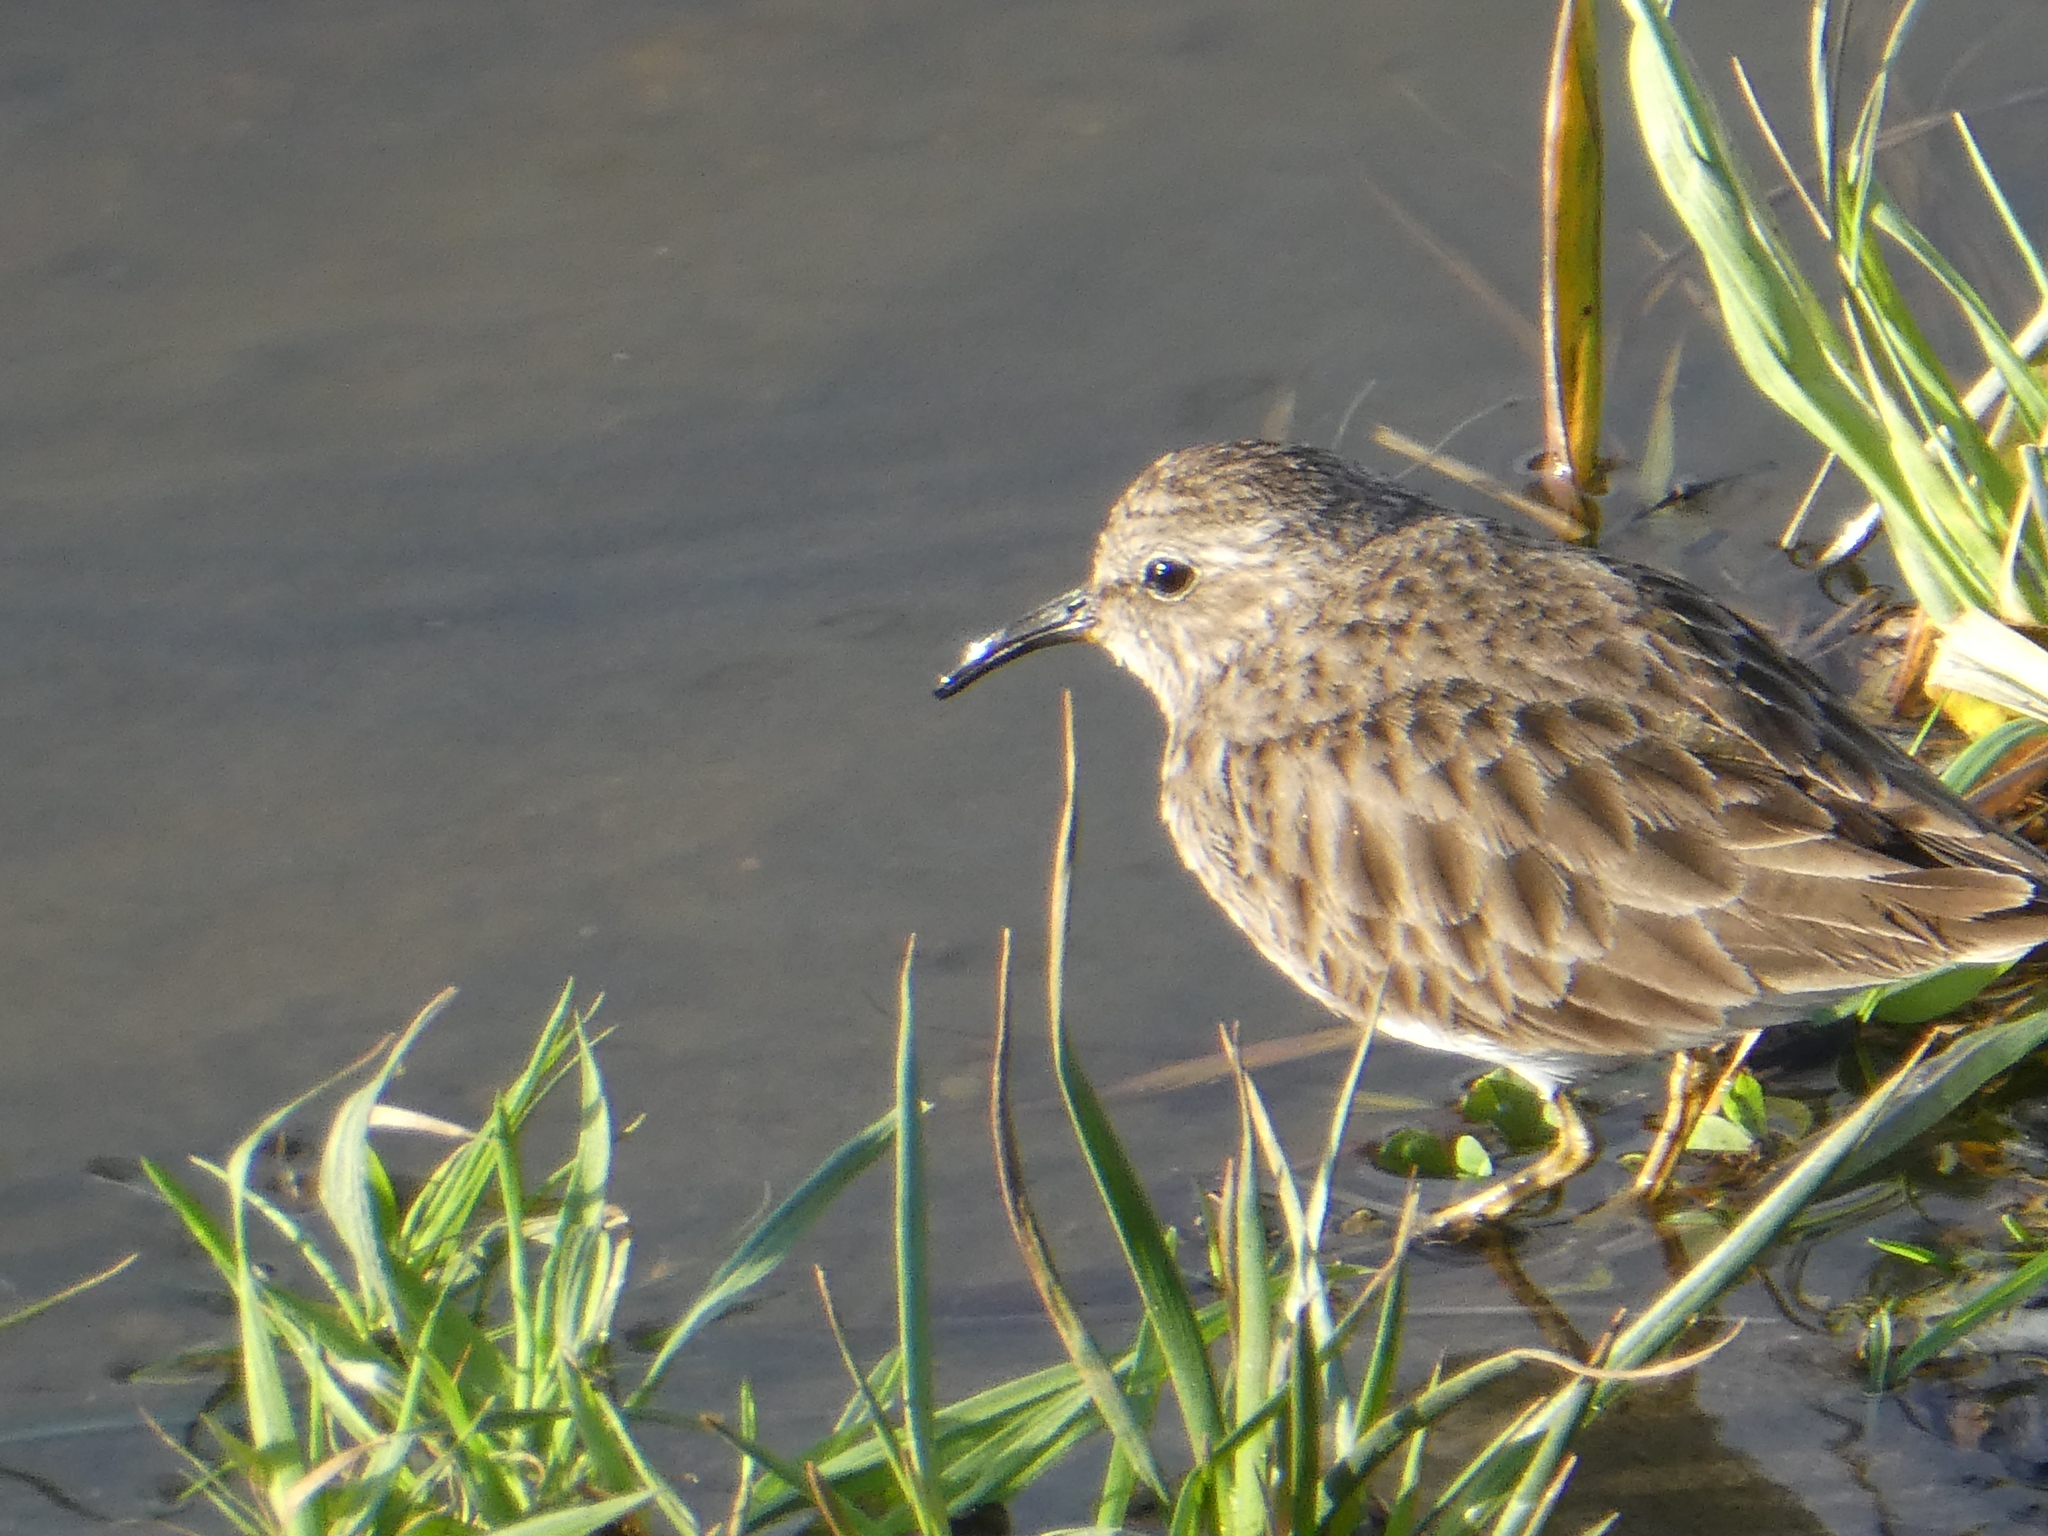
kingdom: Animalia
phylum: Chordata
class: Aves
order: Charadriiformes
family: Scolopacidae
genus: Calidris
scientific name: Calidris minutilla
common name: Least sandpiper
